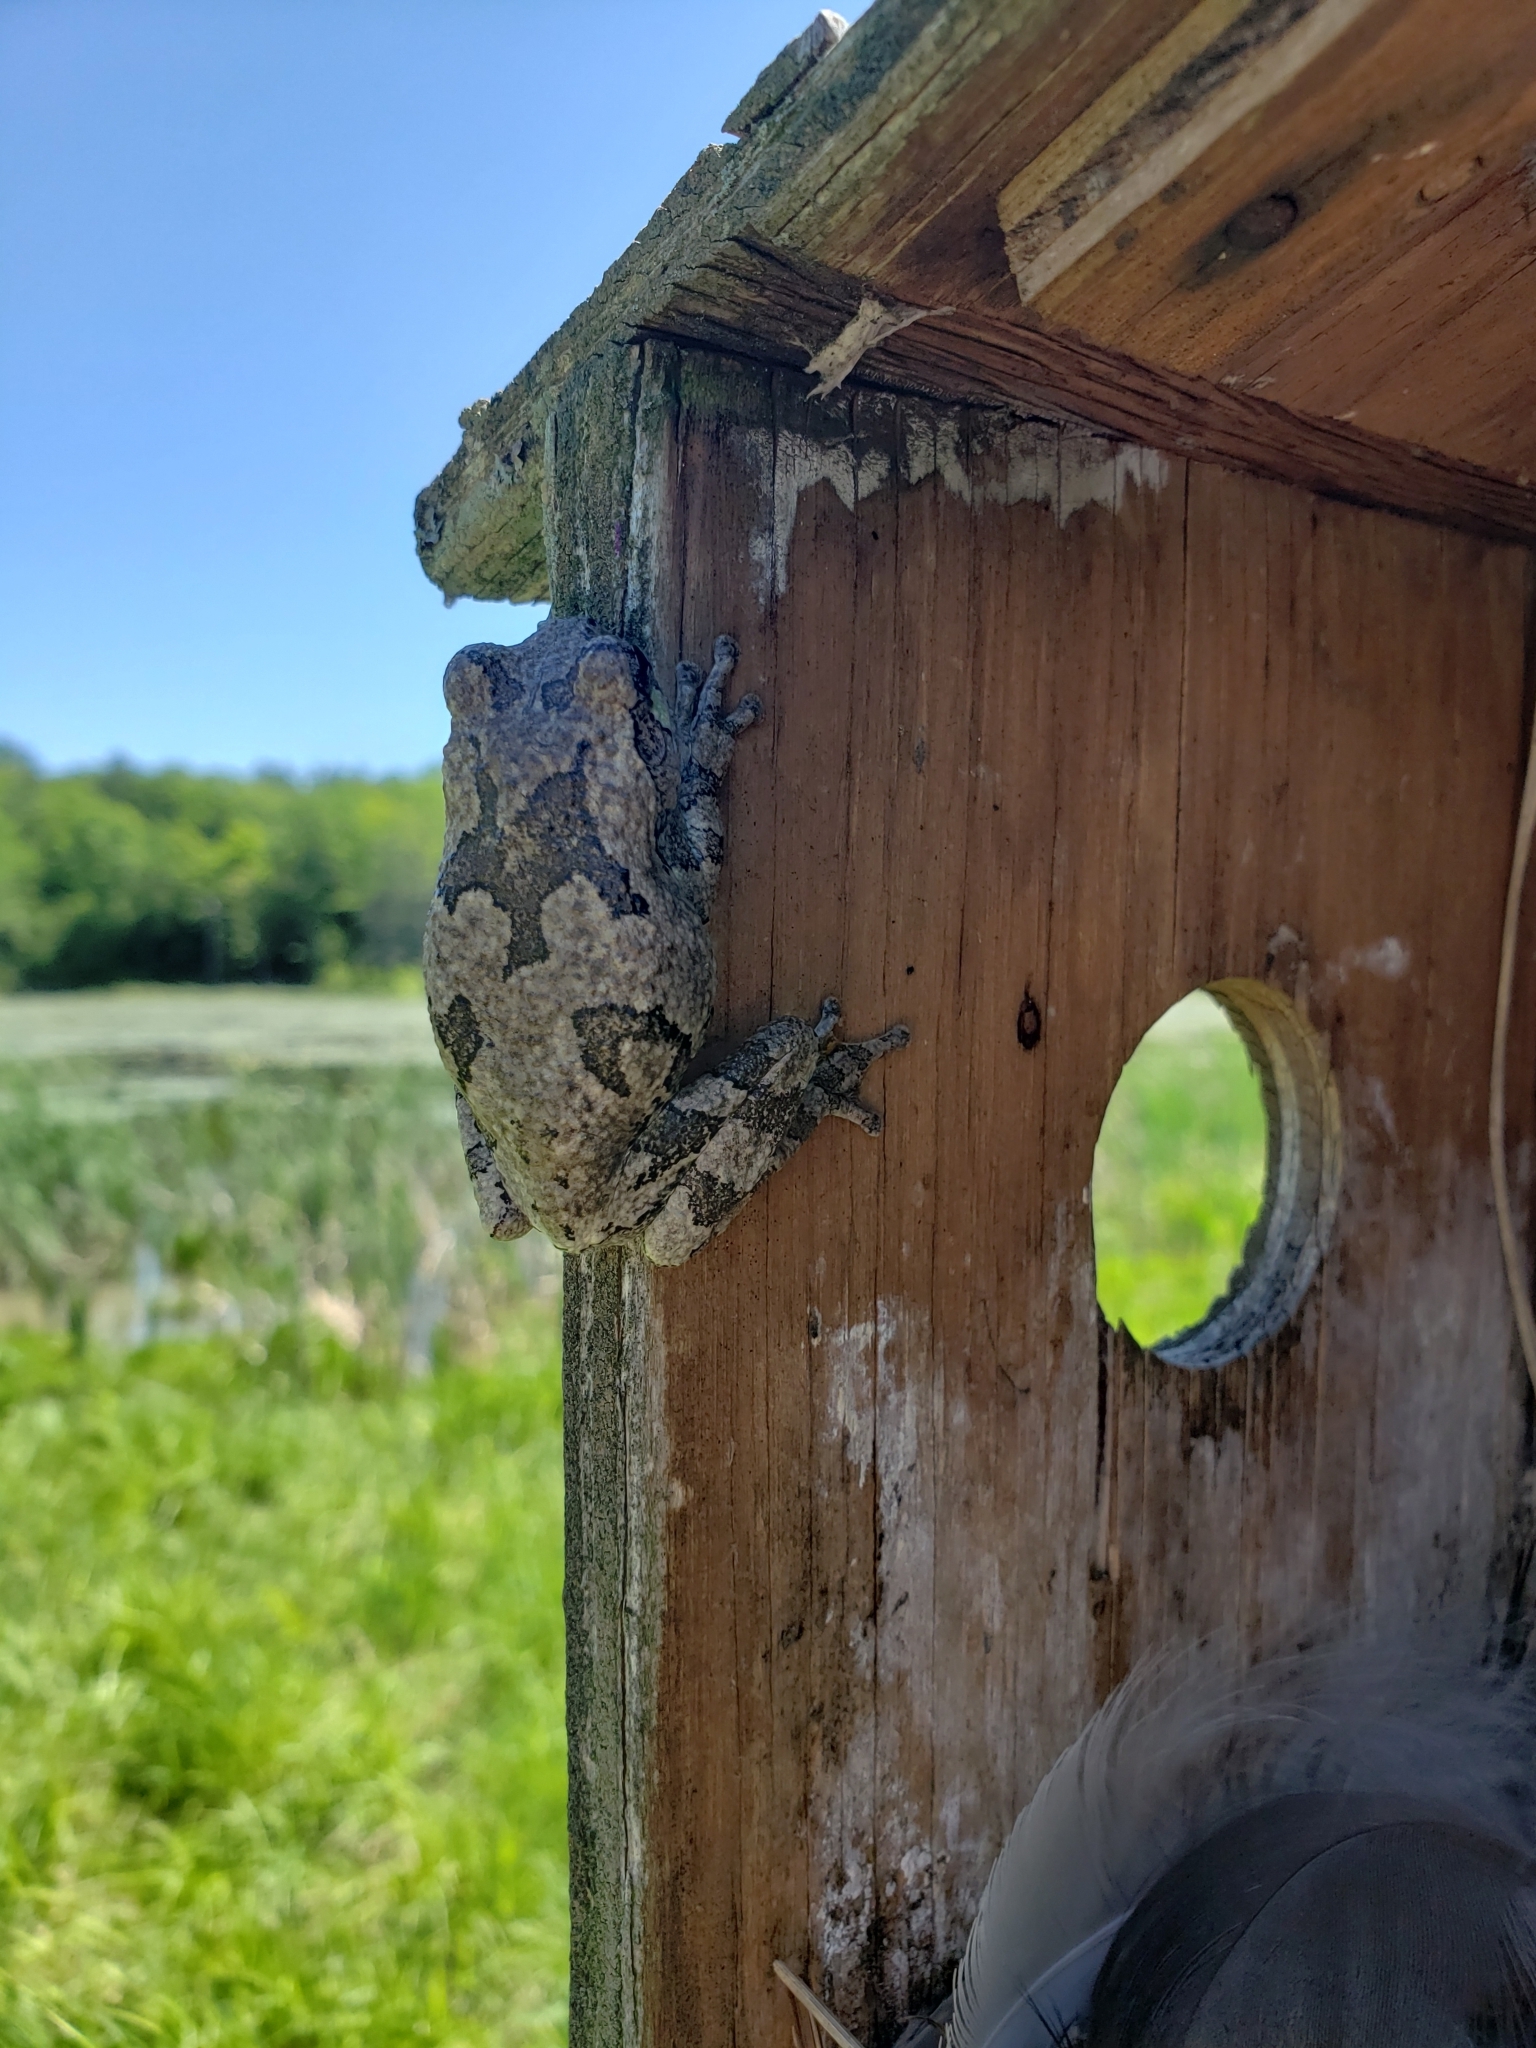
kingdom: Animalia
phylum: Chordata
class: Amphibia
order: Anura
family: Hylidae
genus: Dryophytes
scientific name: Dryophytes versicolor
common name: Gray treefrog
